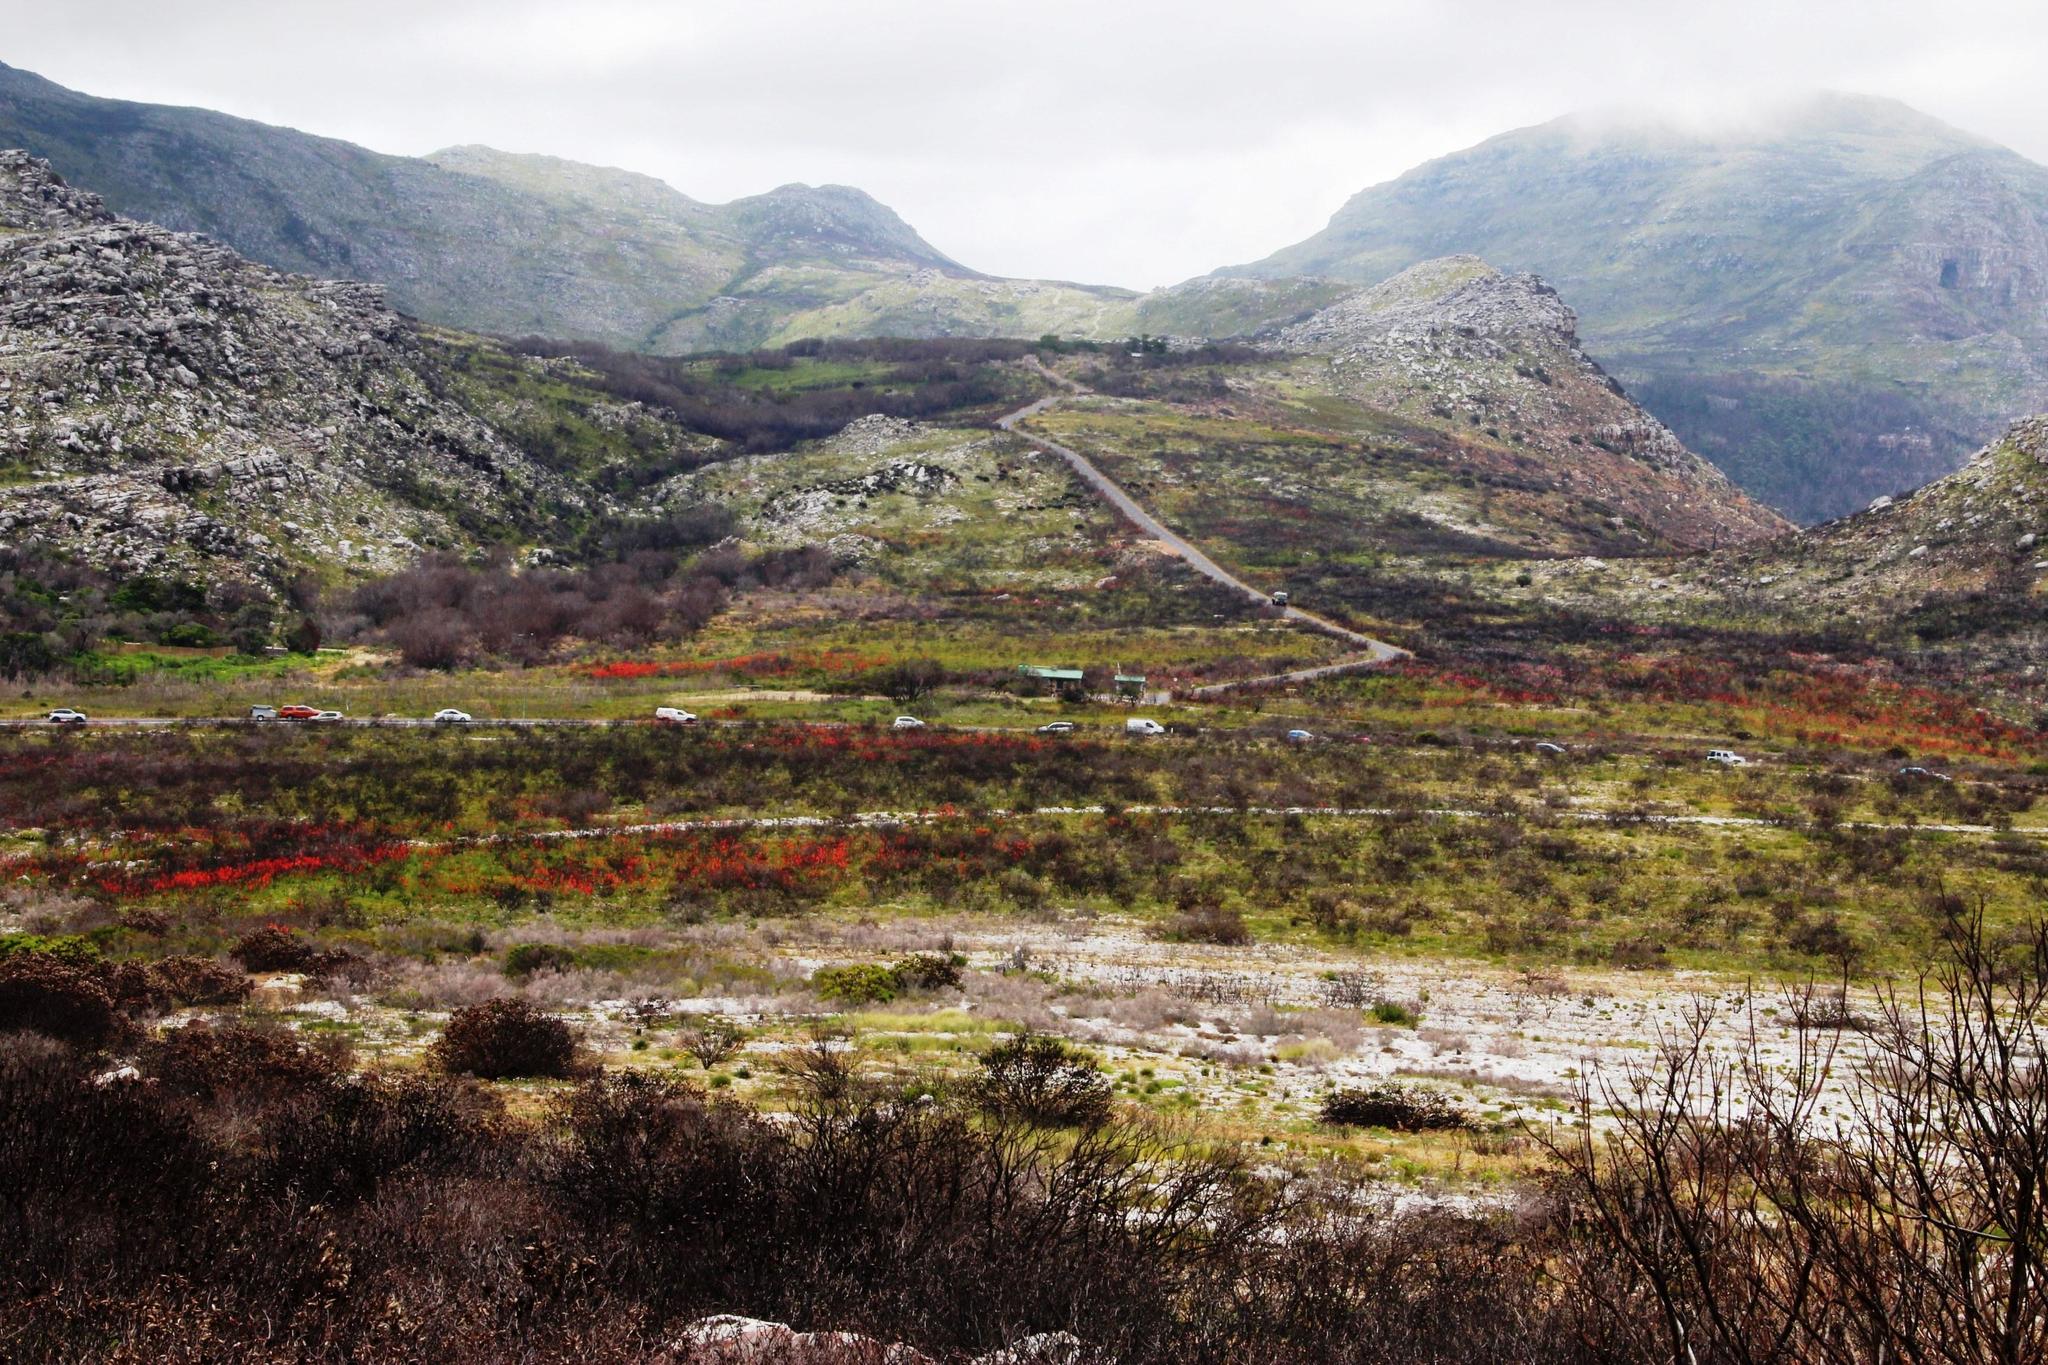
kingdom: Plantae
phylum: Tracheophyta
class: Liliopsida
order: Asparagales
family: Iridaceae
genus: Watsonia
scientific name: Watsonia tabularis
